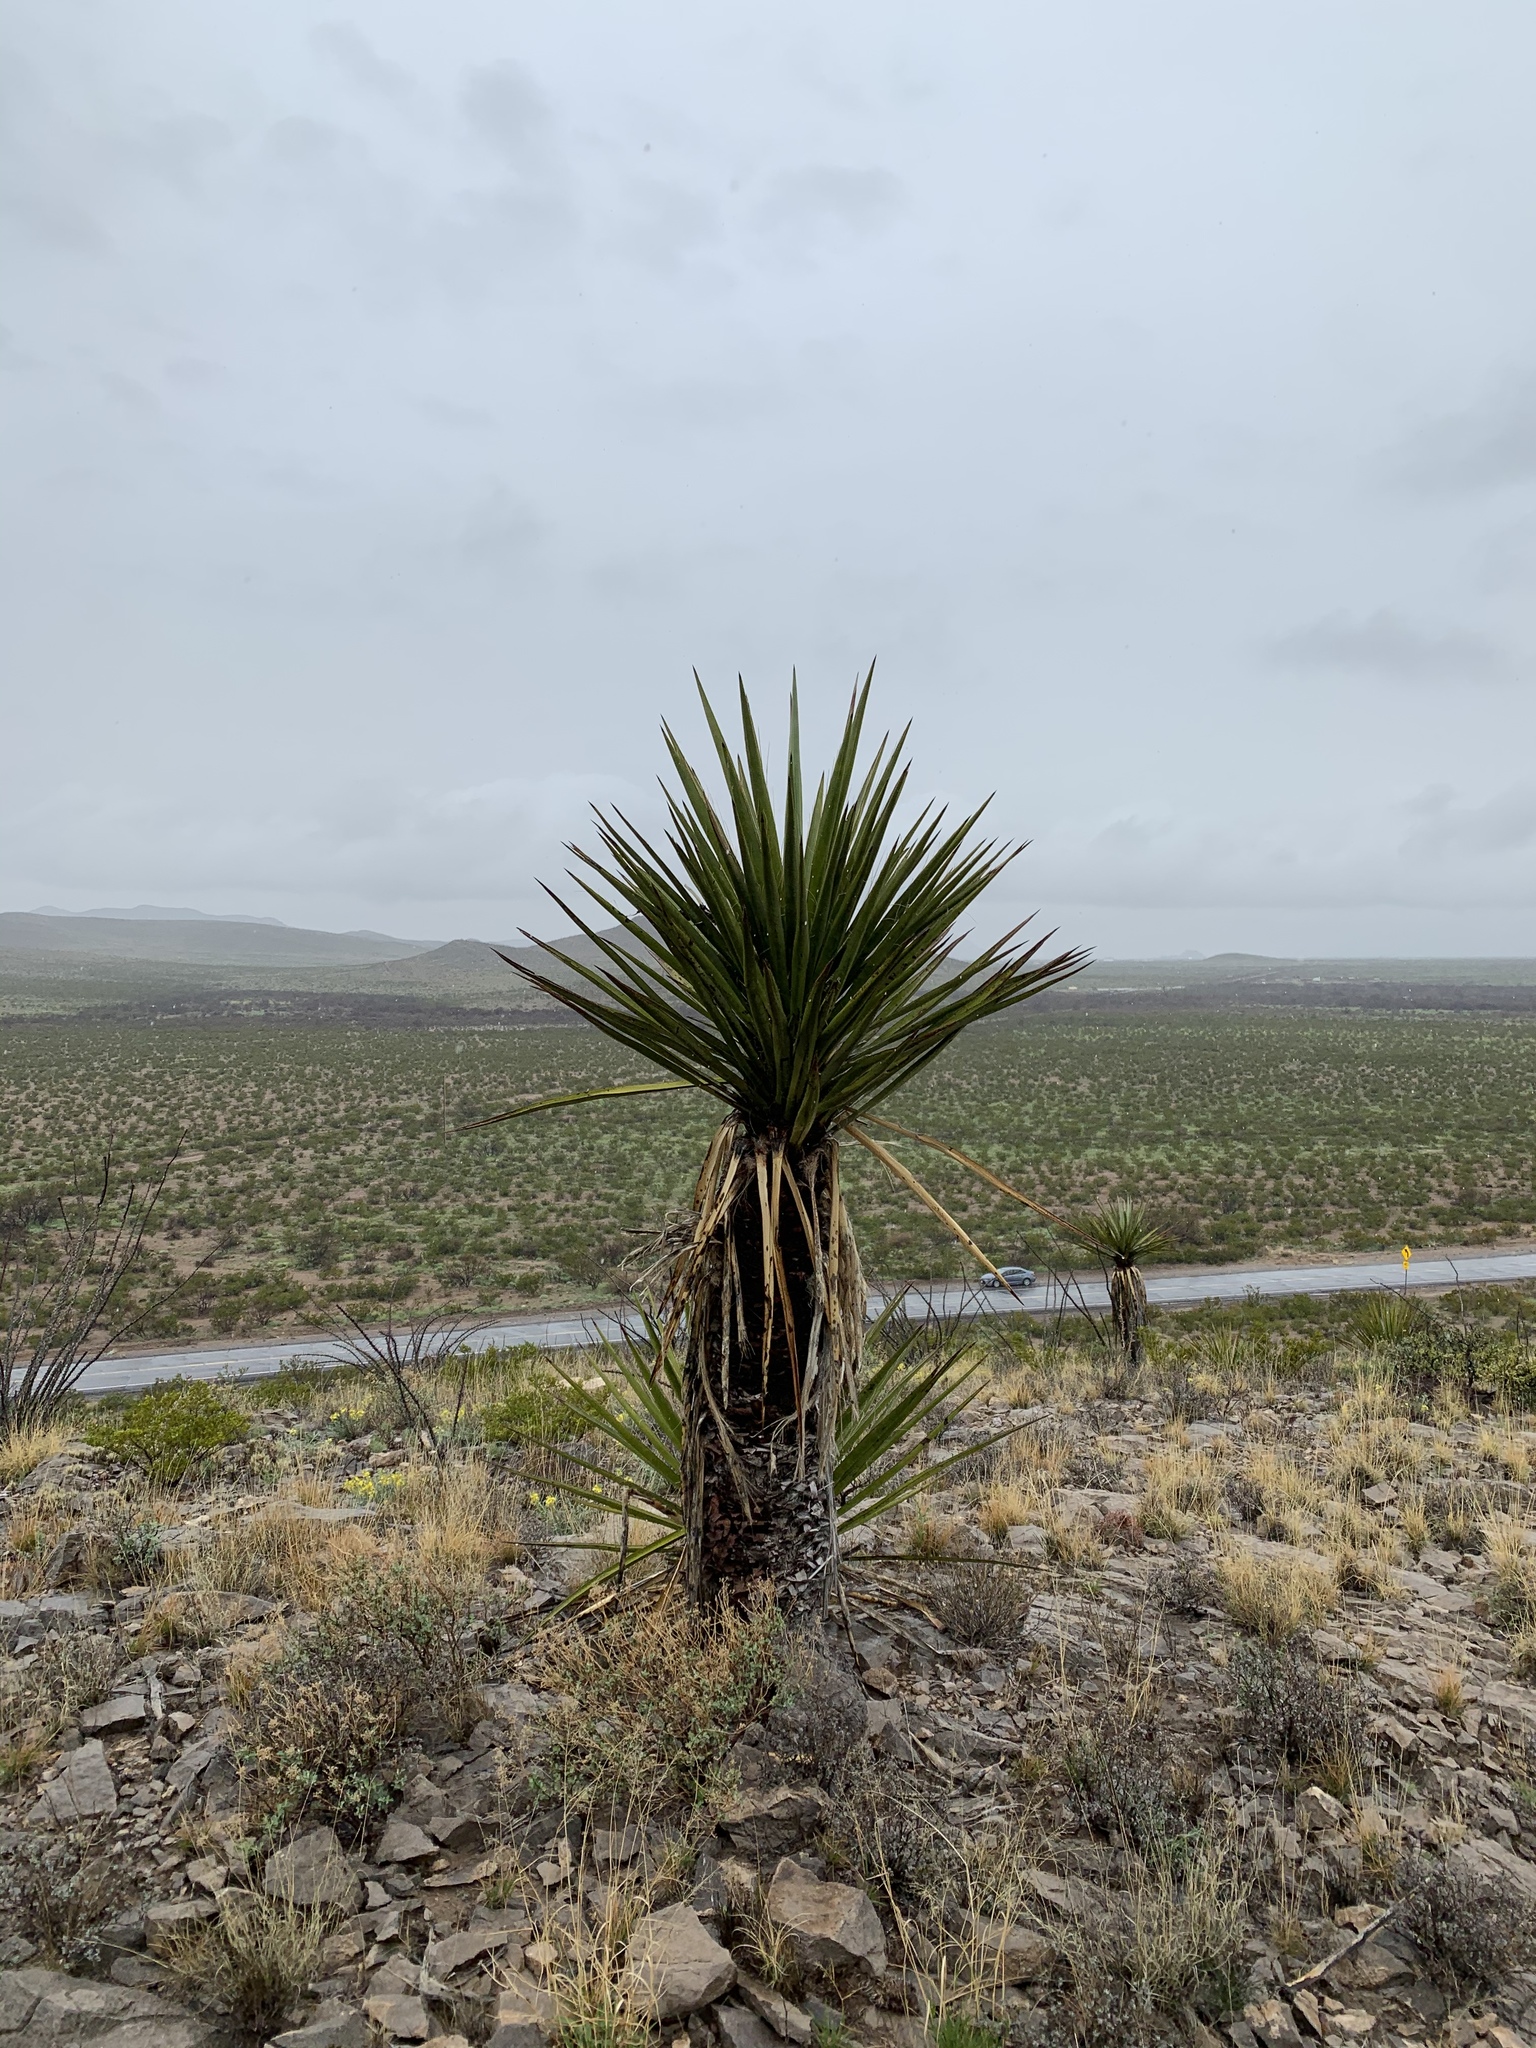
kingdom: Plantae
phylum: Tracheophyta
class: Liliopsida
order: Asparagales
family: Asparagaceae
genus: Yucca
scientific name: Yucca treculiana
